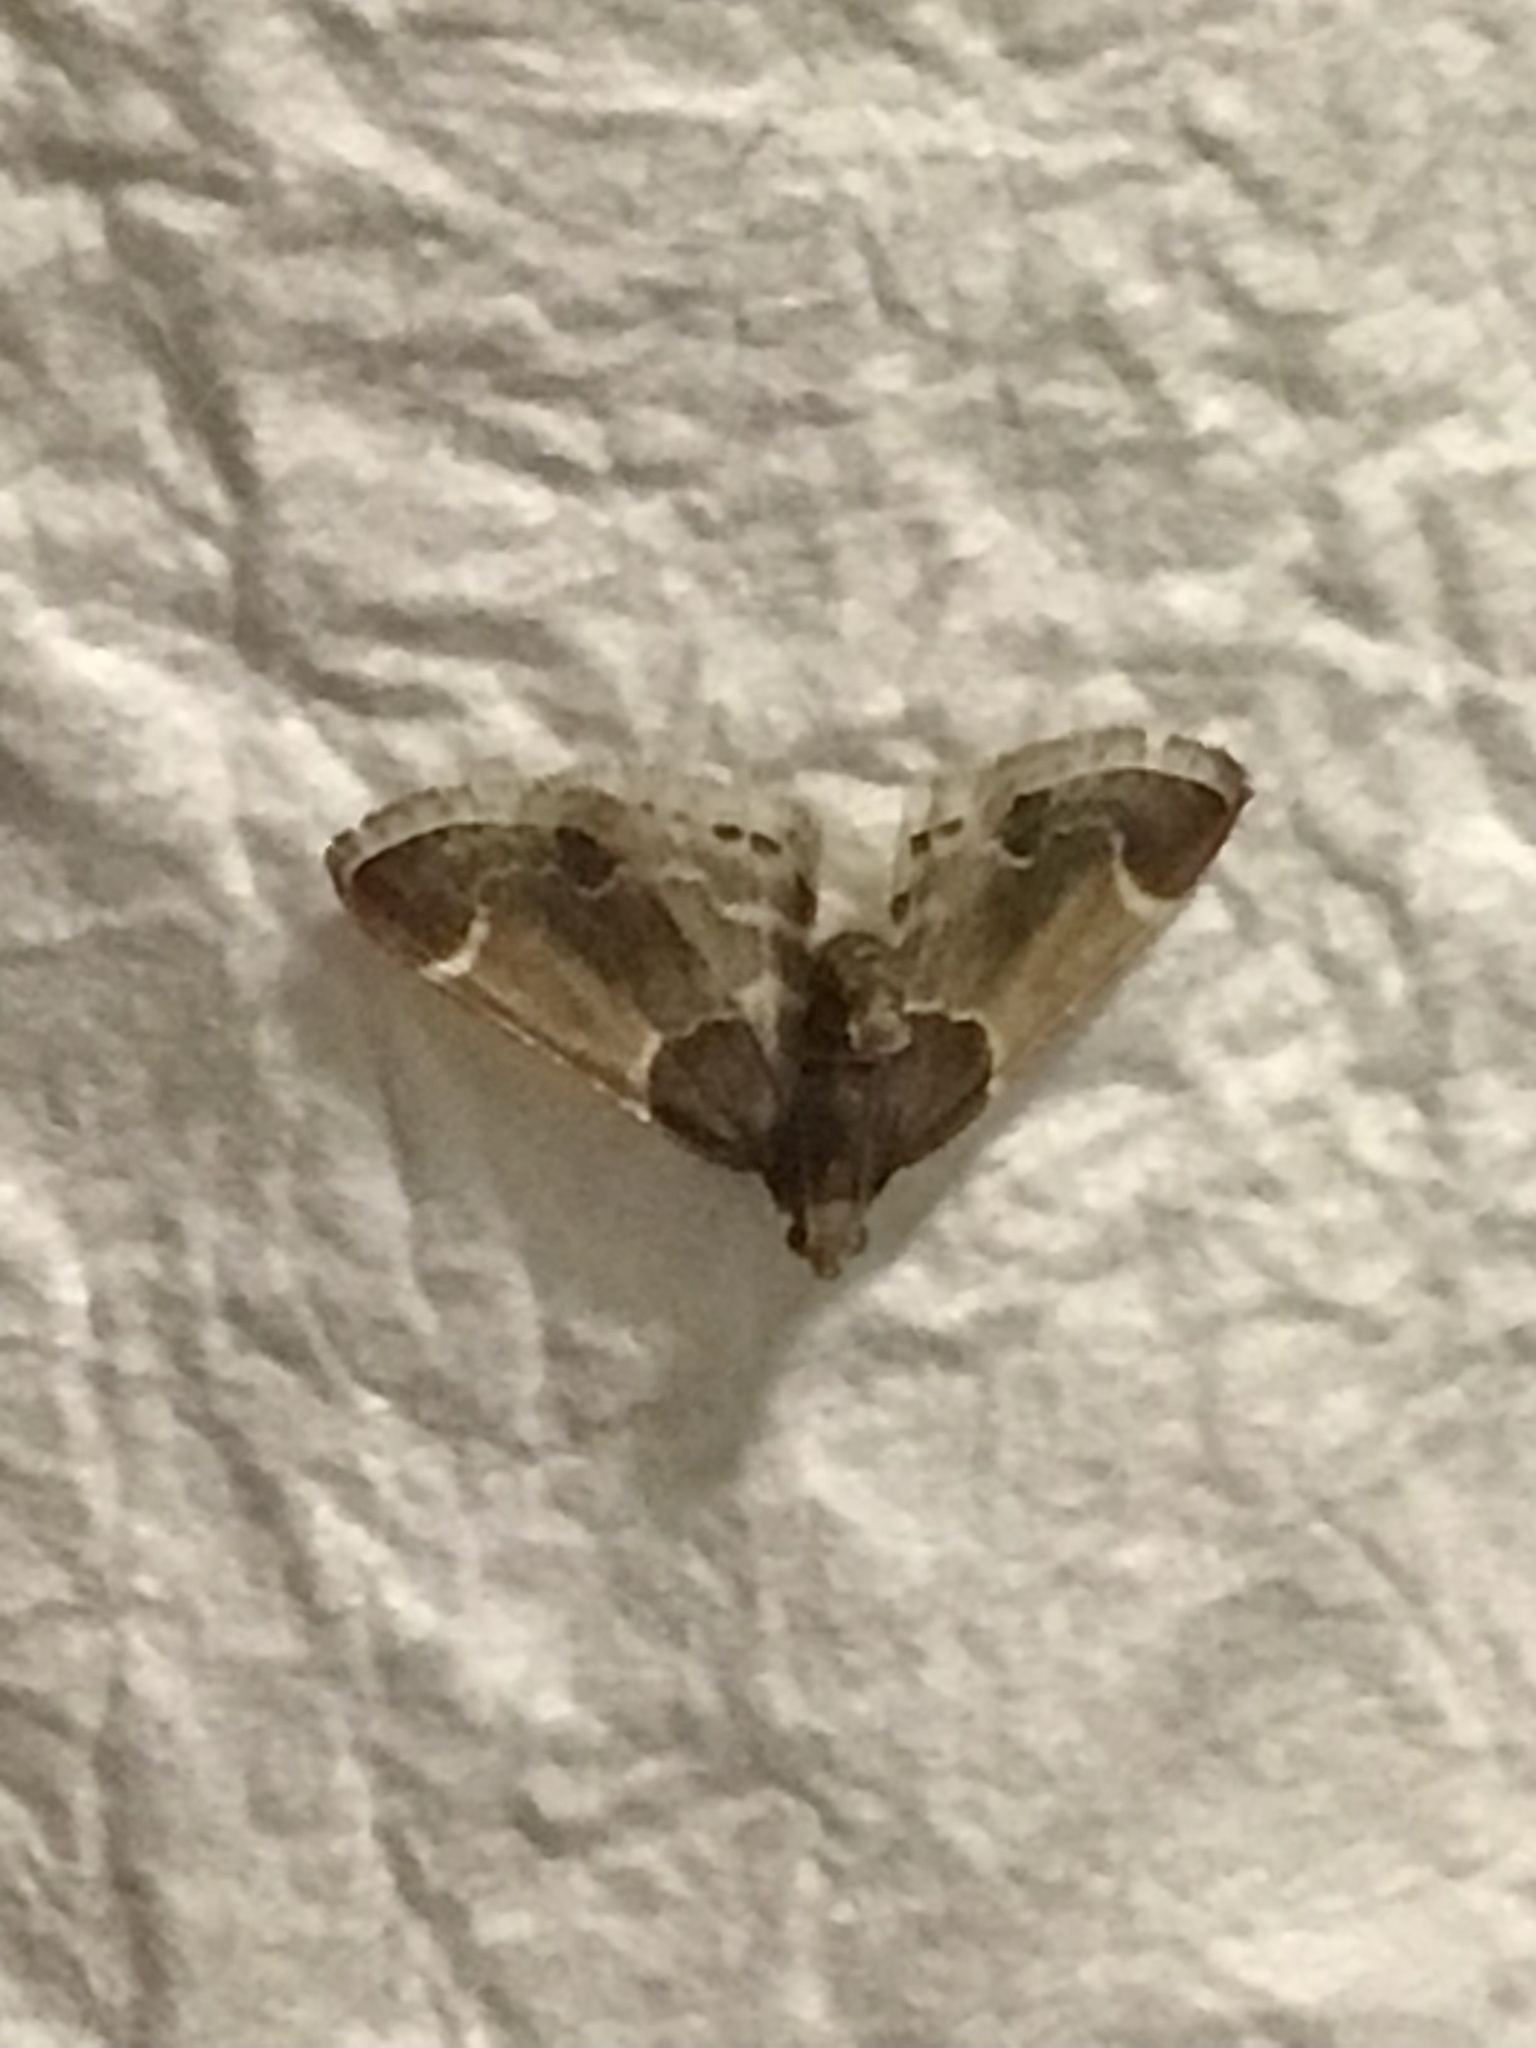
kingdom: Animalia
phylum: Arthropoda
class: Insecta
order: Lepidoptera
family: Pyralidae
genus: Pyralis
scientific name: Pyralis farinalis
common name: Meal moth
